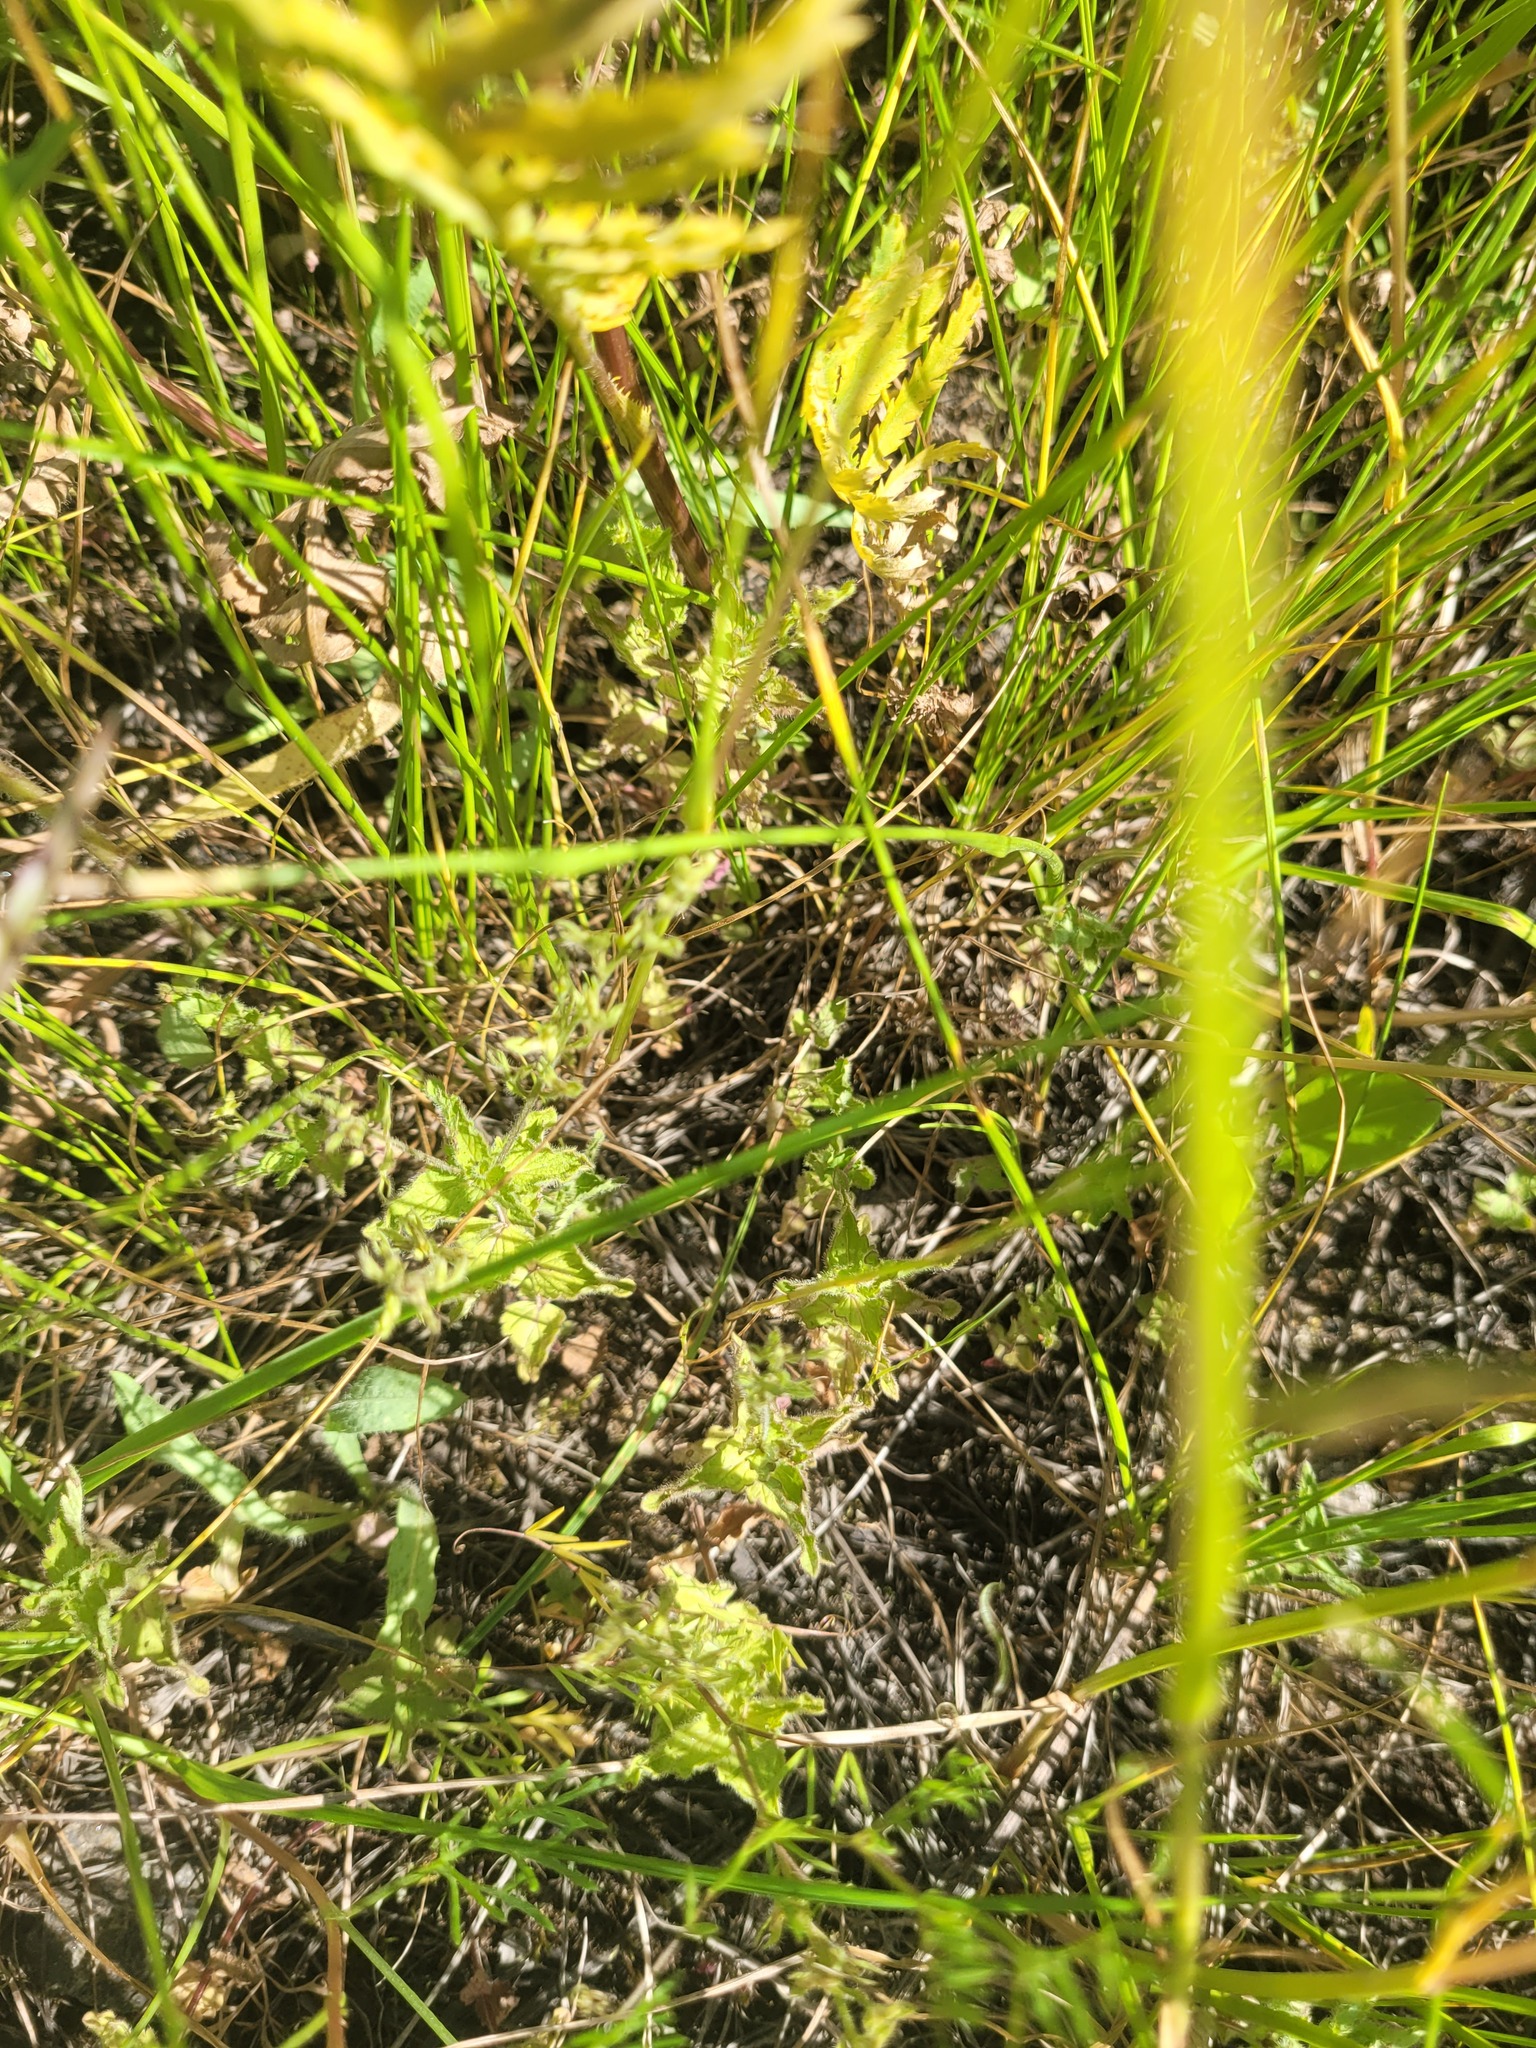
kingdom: Plantae
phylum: Tracheophyta
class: Magnoliopsida
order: Lamiales
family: Plantaginaceae
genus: Veronica
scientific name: Veronica chamaedrys
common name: Germander speedwell
